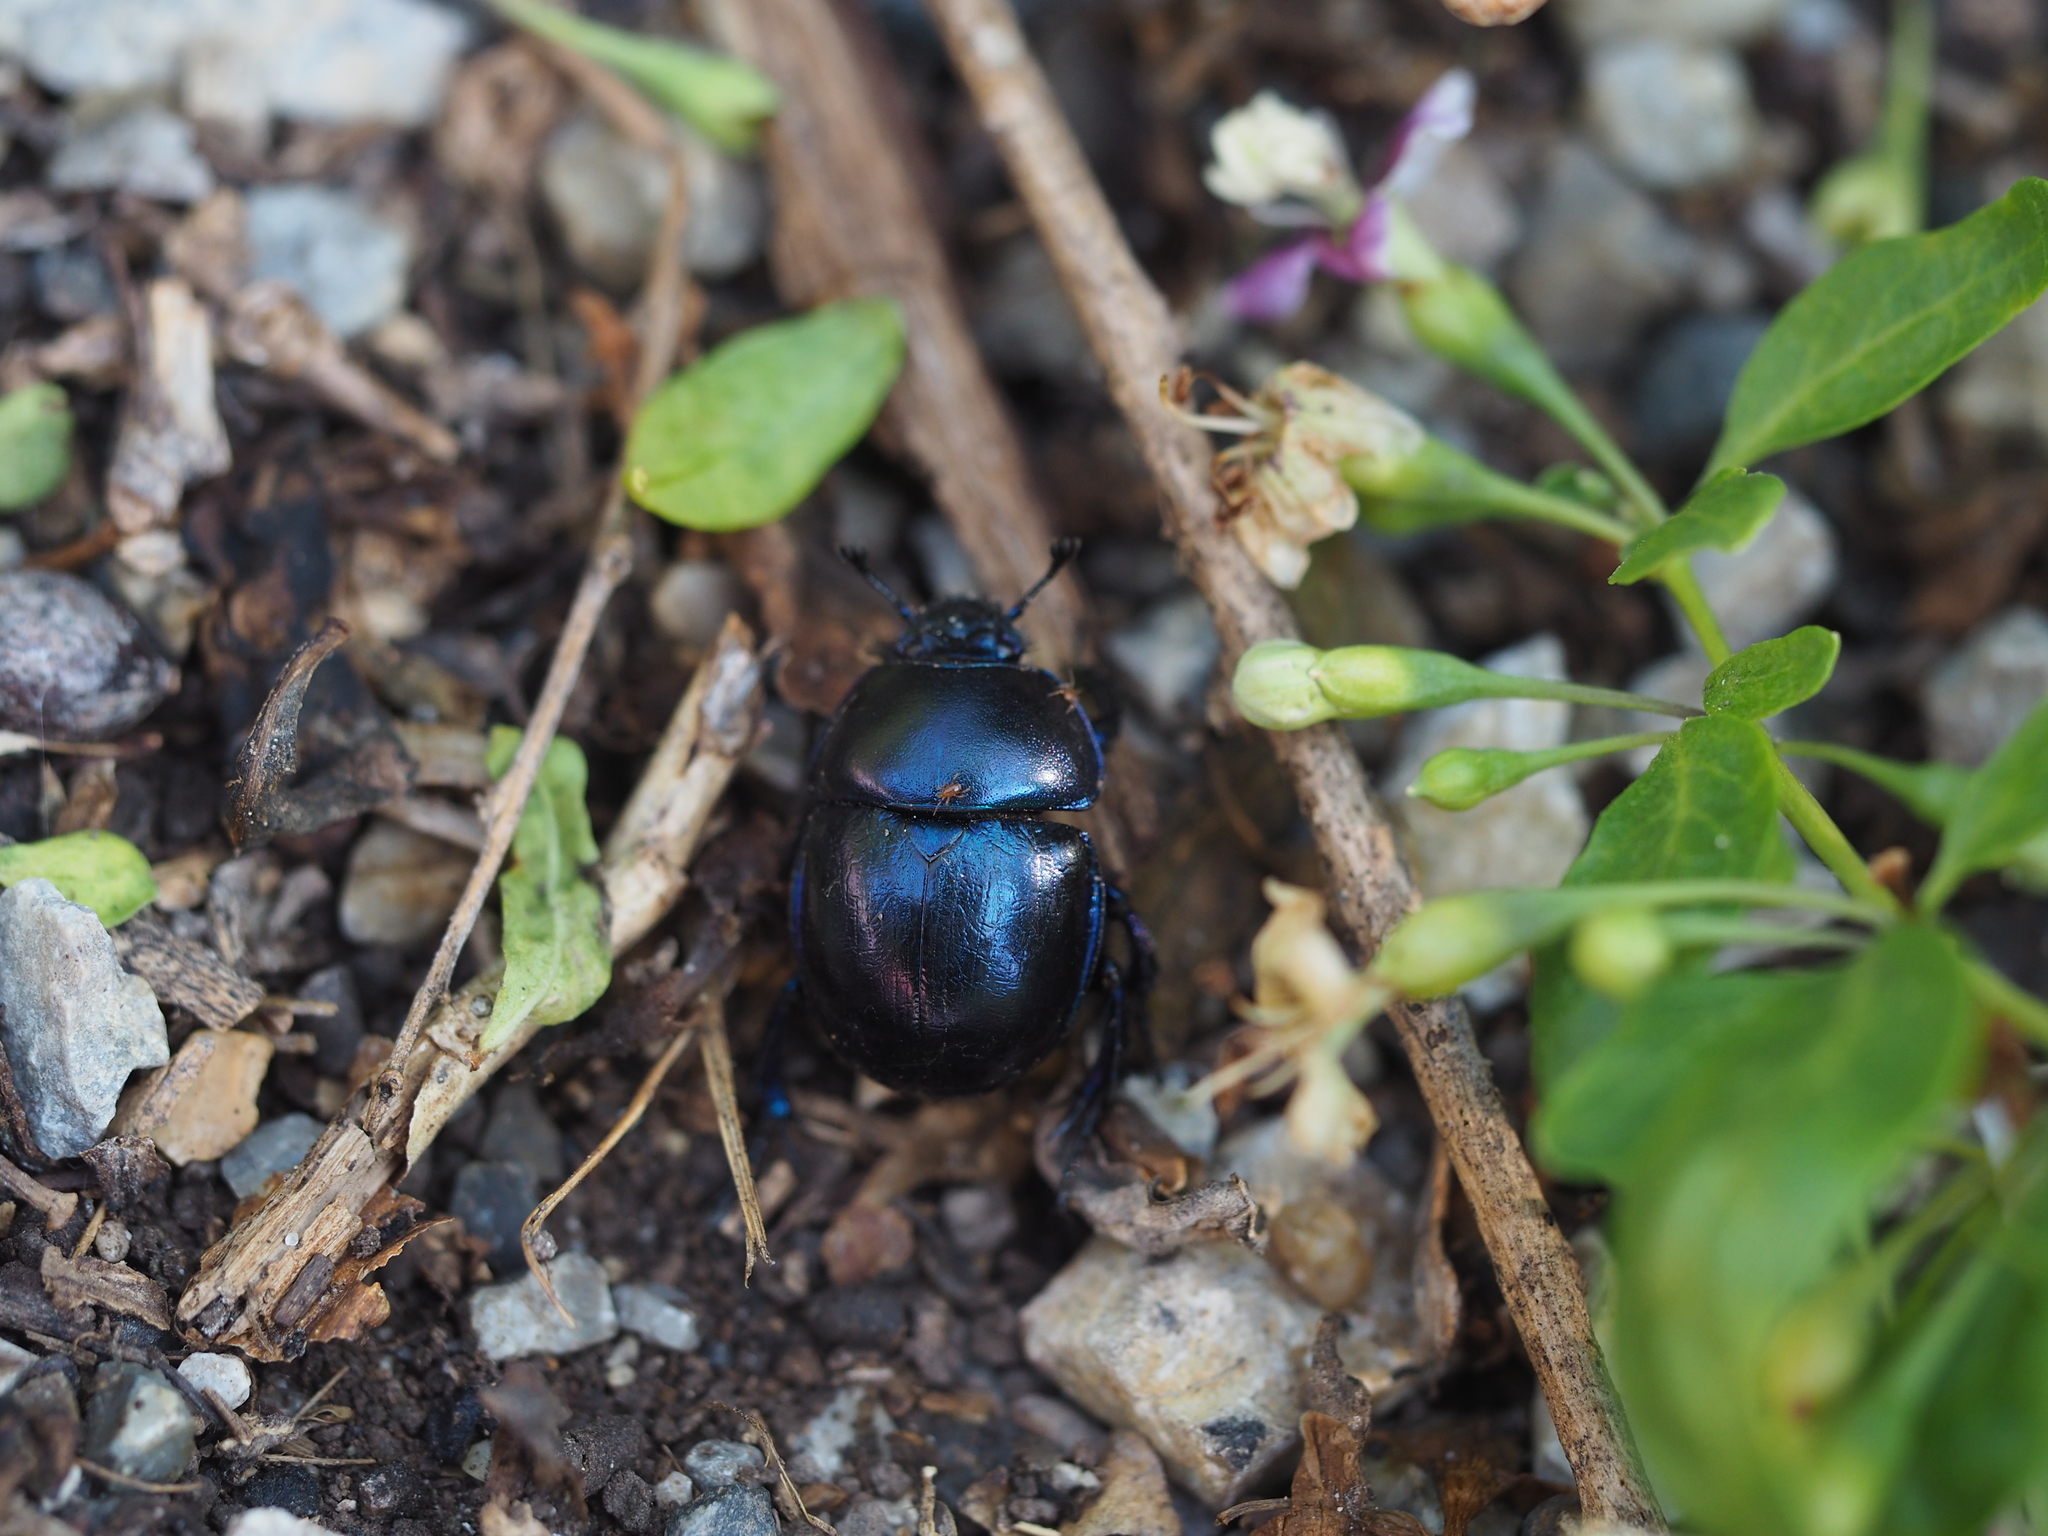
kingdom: Animalia
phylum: Arthropoda
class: Insecta
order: Coleoptera
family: Geotrupidae
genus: Trypocopris
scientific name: Trypocopris vernalis
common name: Spring dumbledor
